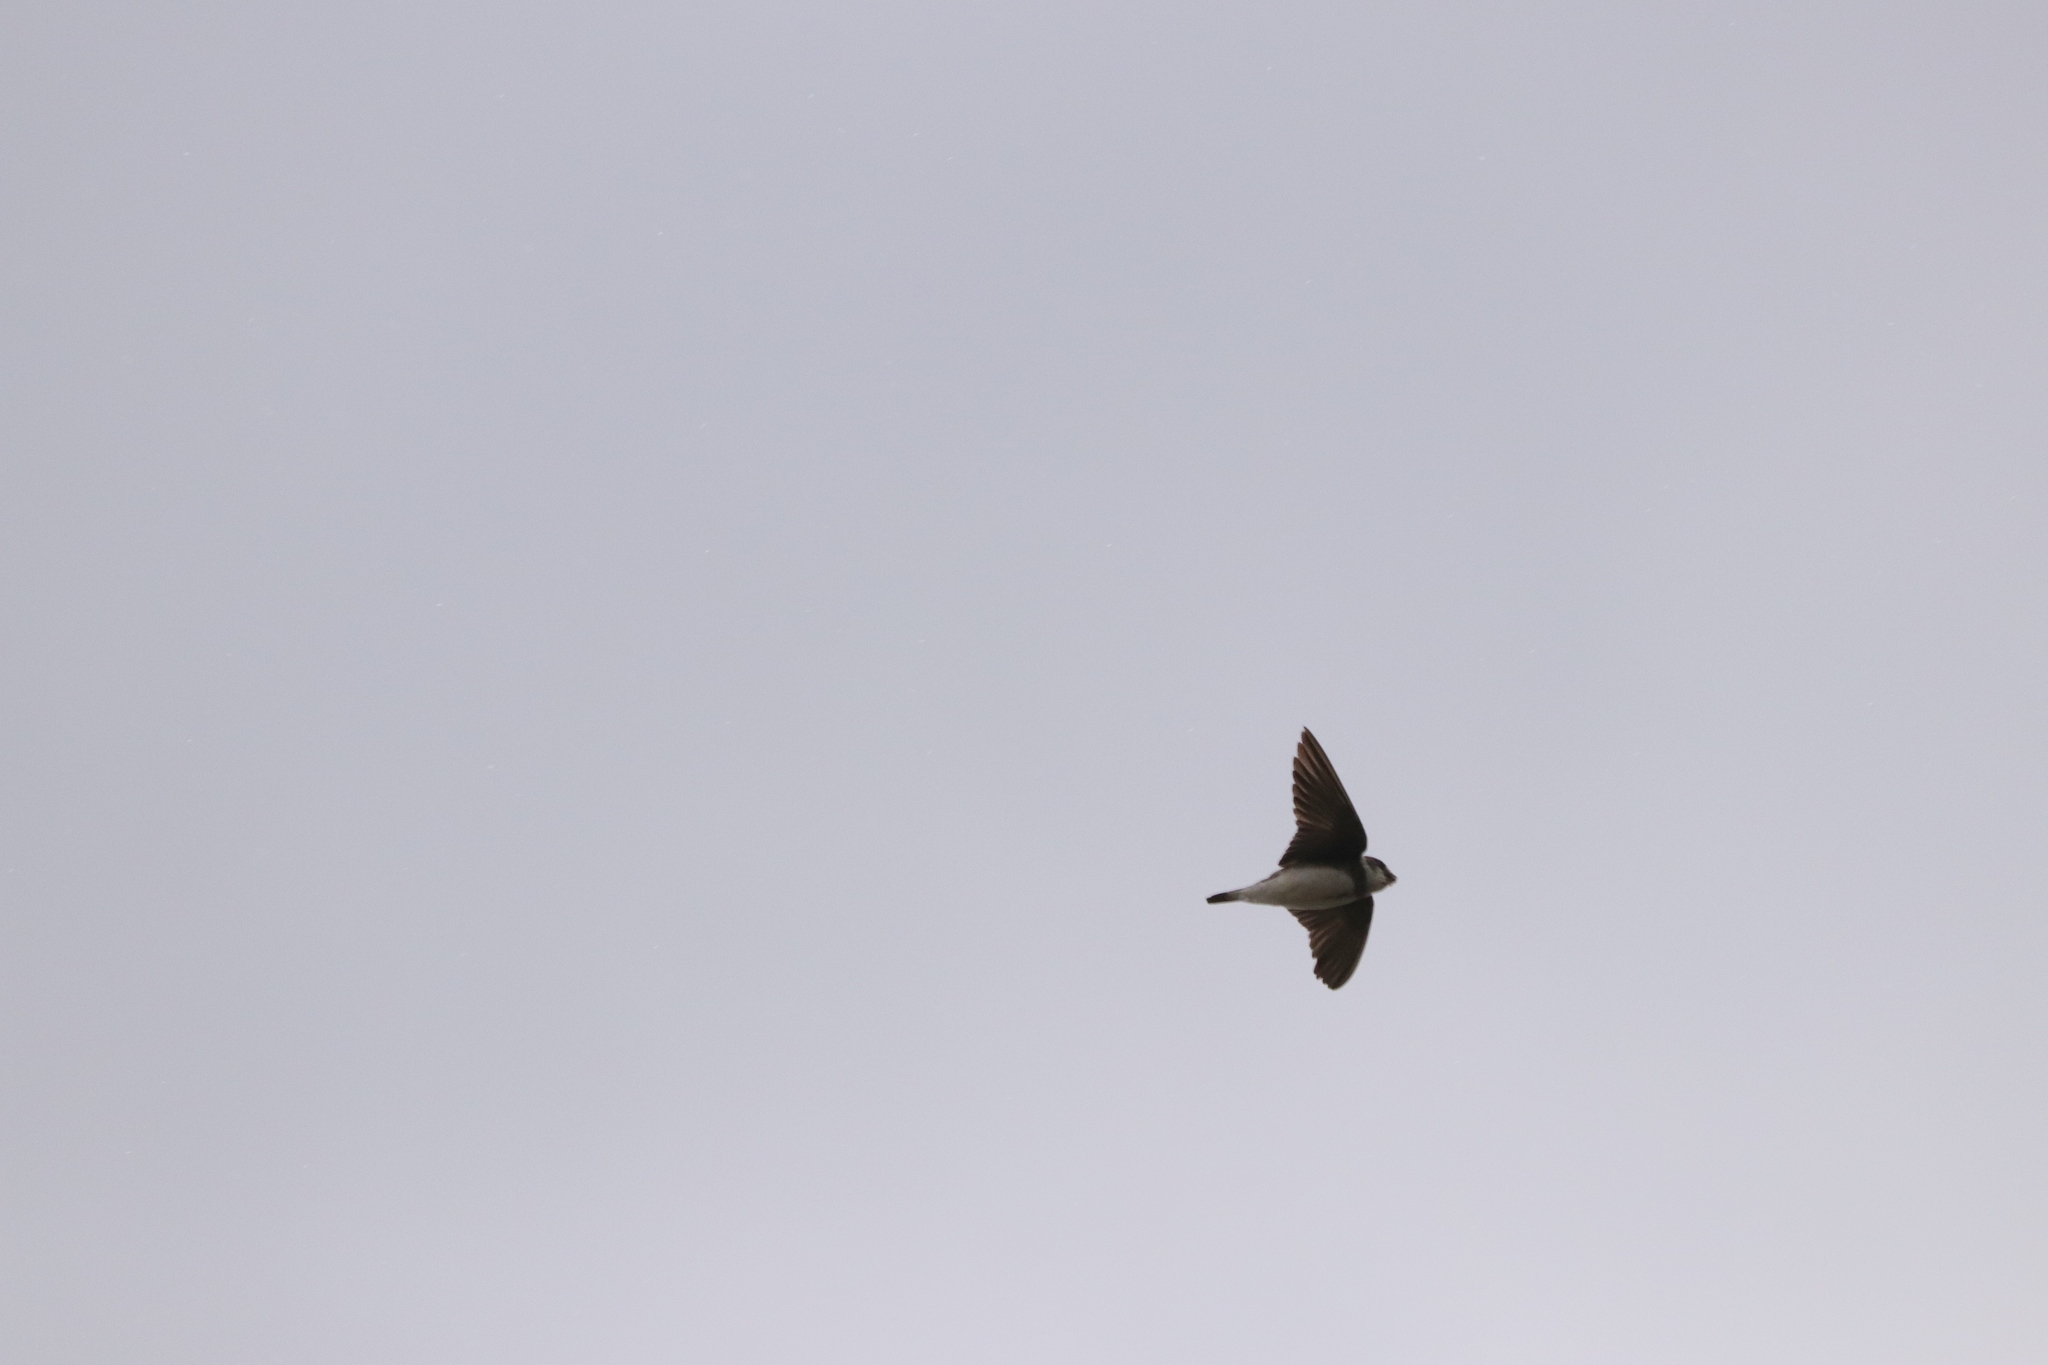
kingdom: Animalia
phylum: Chordata
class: Aves
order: Passeriformes
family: Hirundinidae
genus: Riparia
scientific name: Riparia riparia
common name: Sand martin
